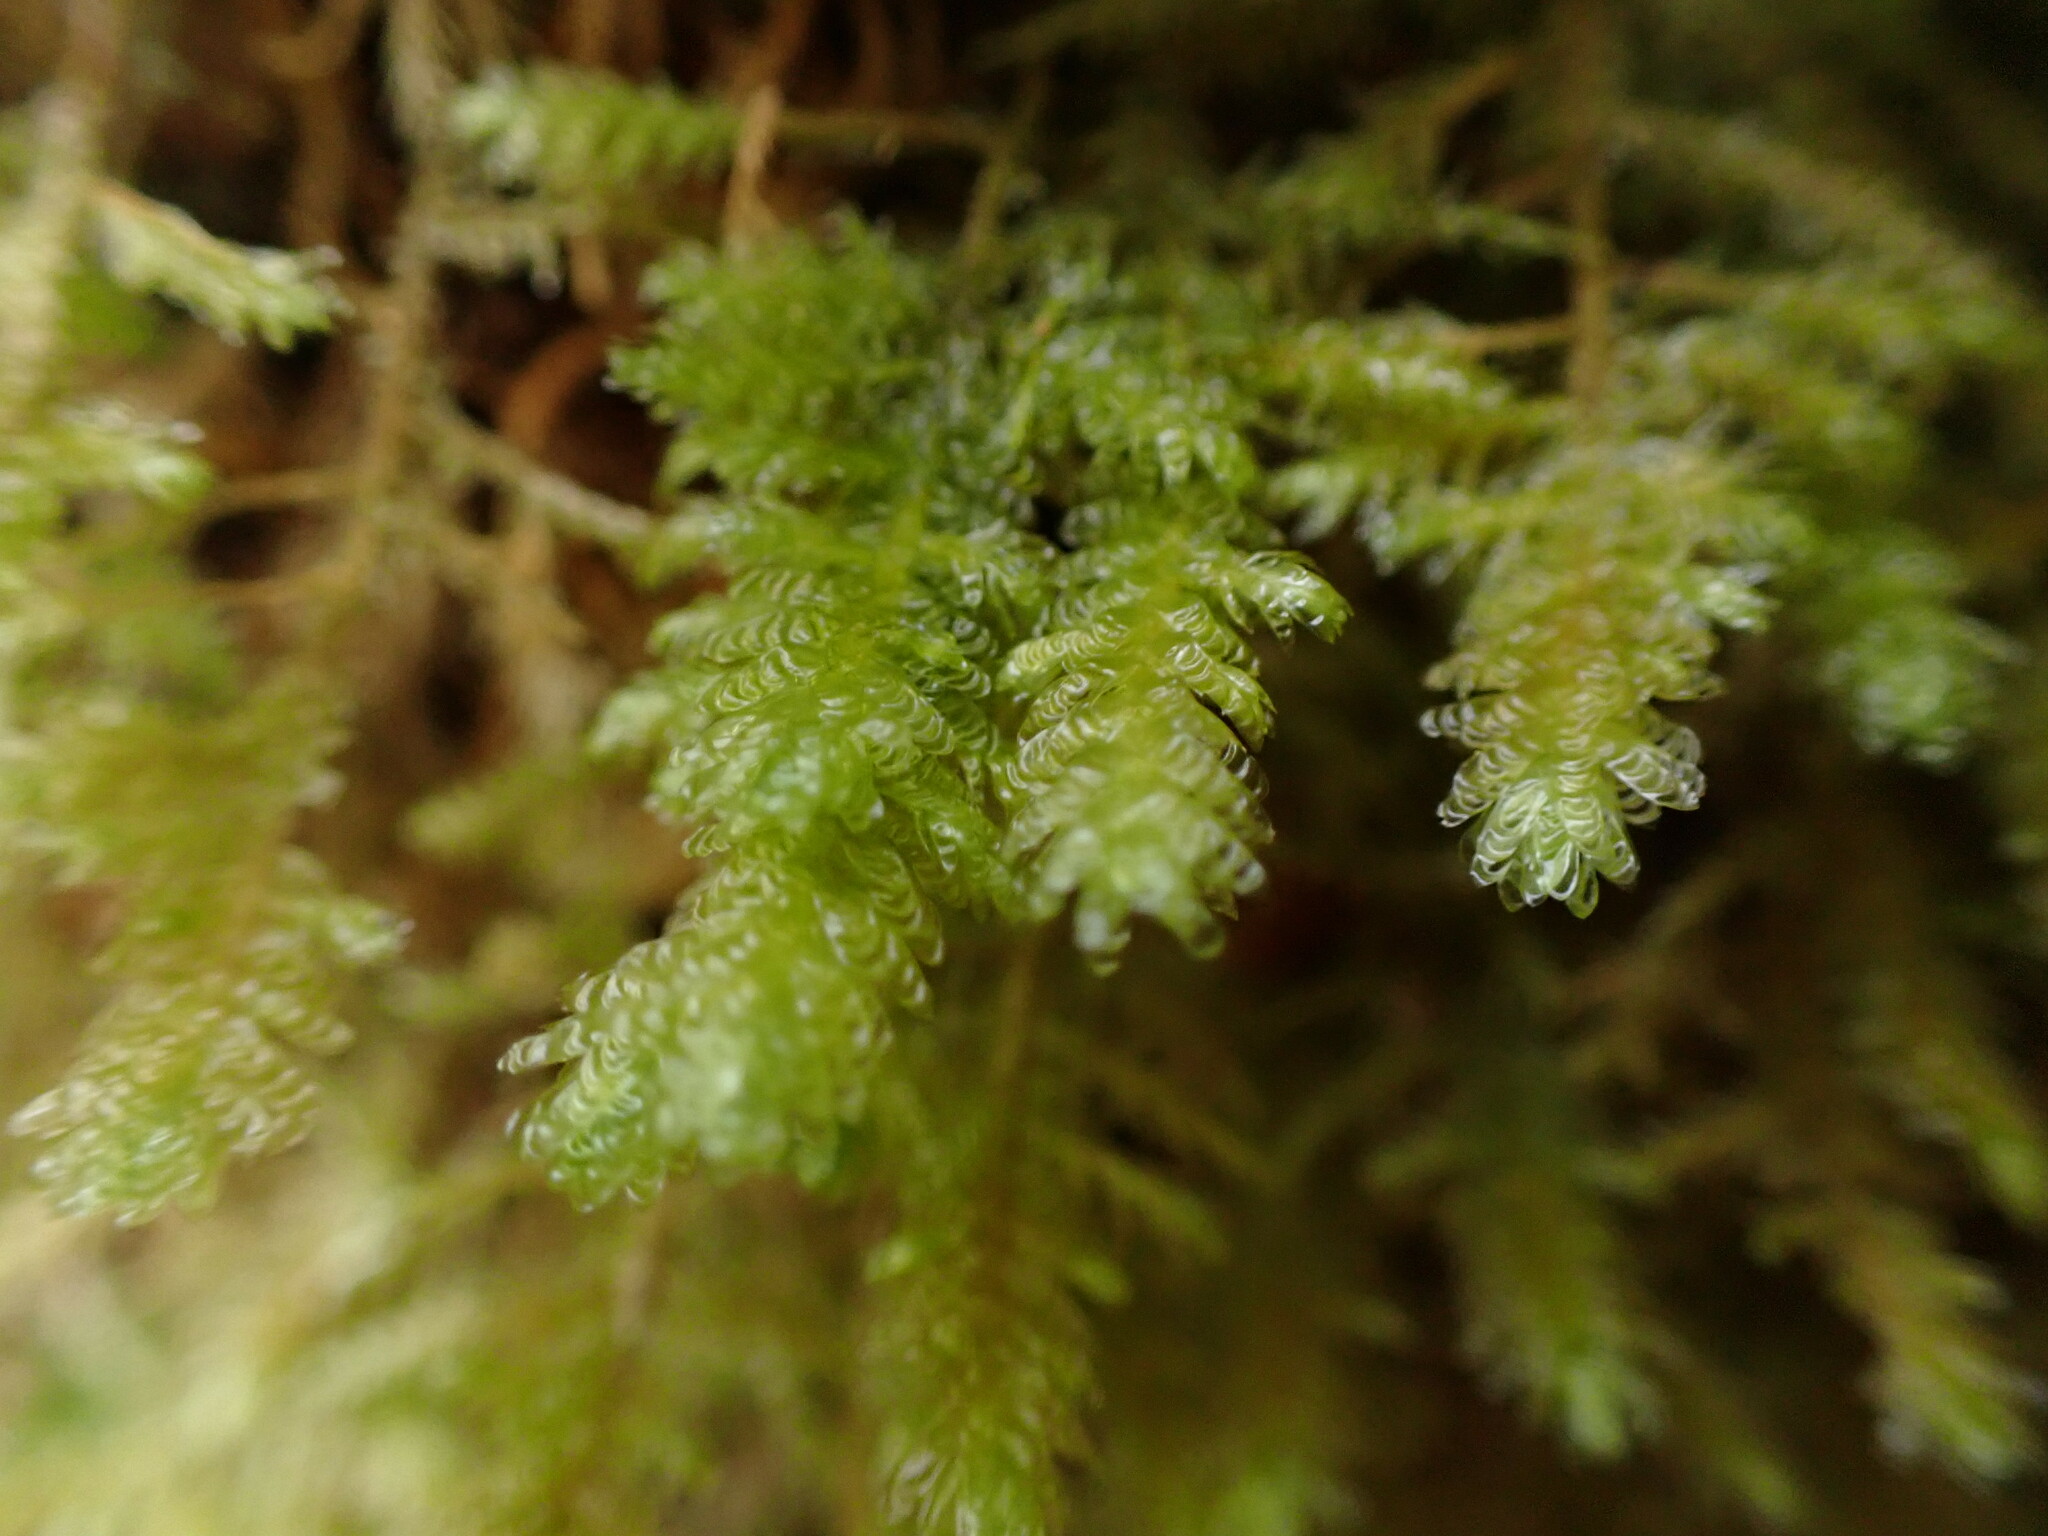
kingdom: Plantae
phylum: Bryophyta
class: Bryopsida
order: Hypnales
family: Neckeraceae
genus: Metaneckera
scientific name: Metaneckera menziesii
